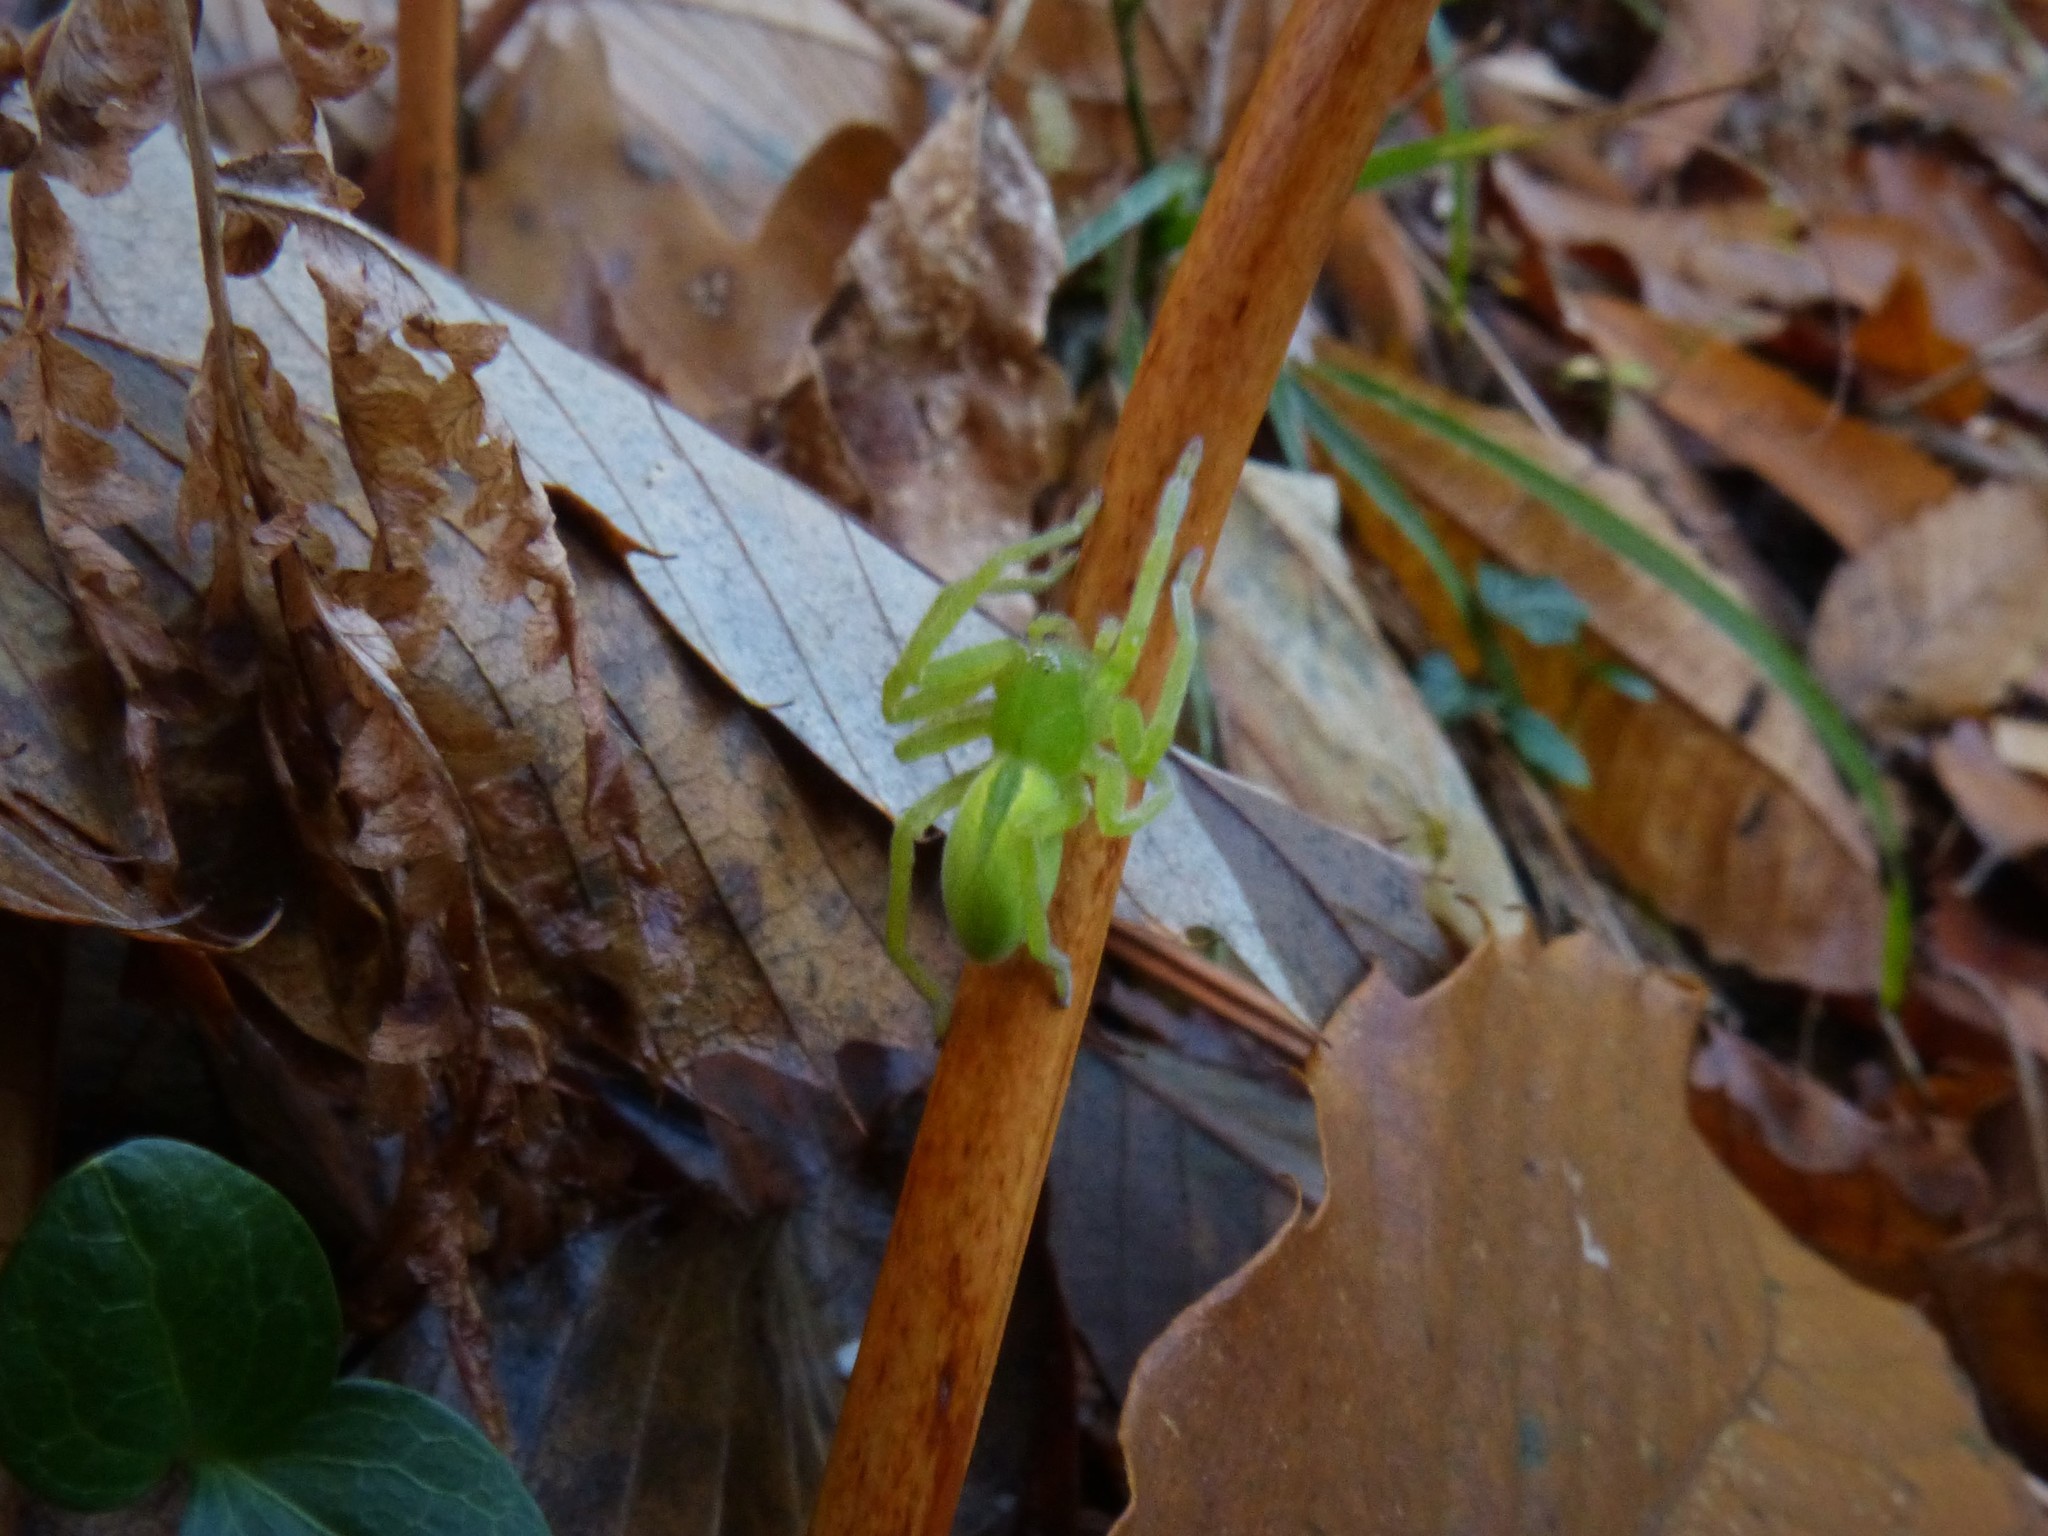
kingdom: Animalia
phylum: Arthropoda
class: Arachnida
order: Araneae
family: Sparassidae
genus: Micrommata
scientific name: Micrommata virescens
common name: Green spider
